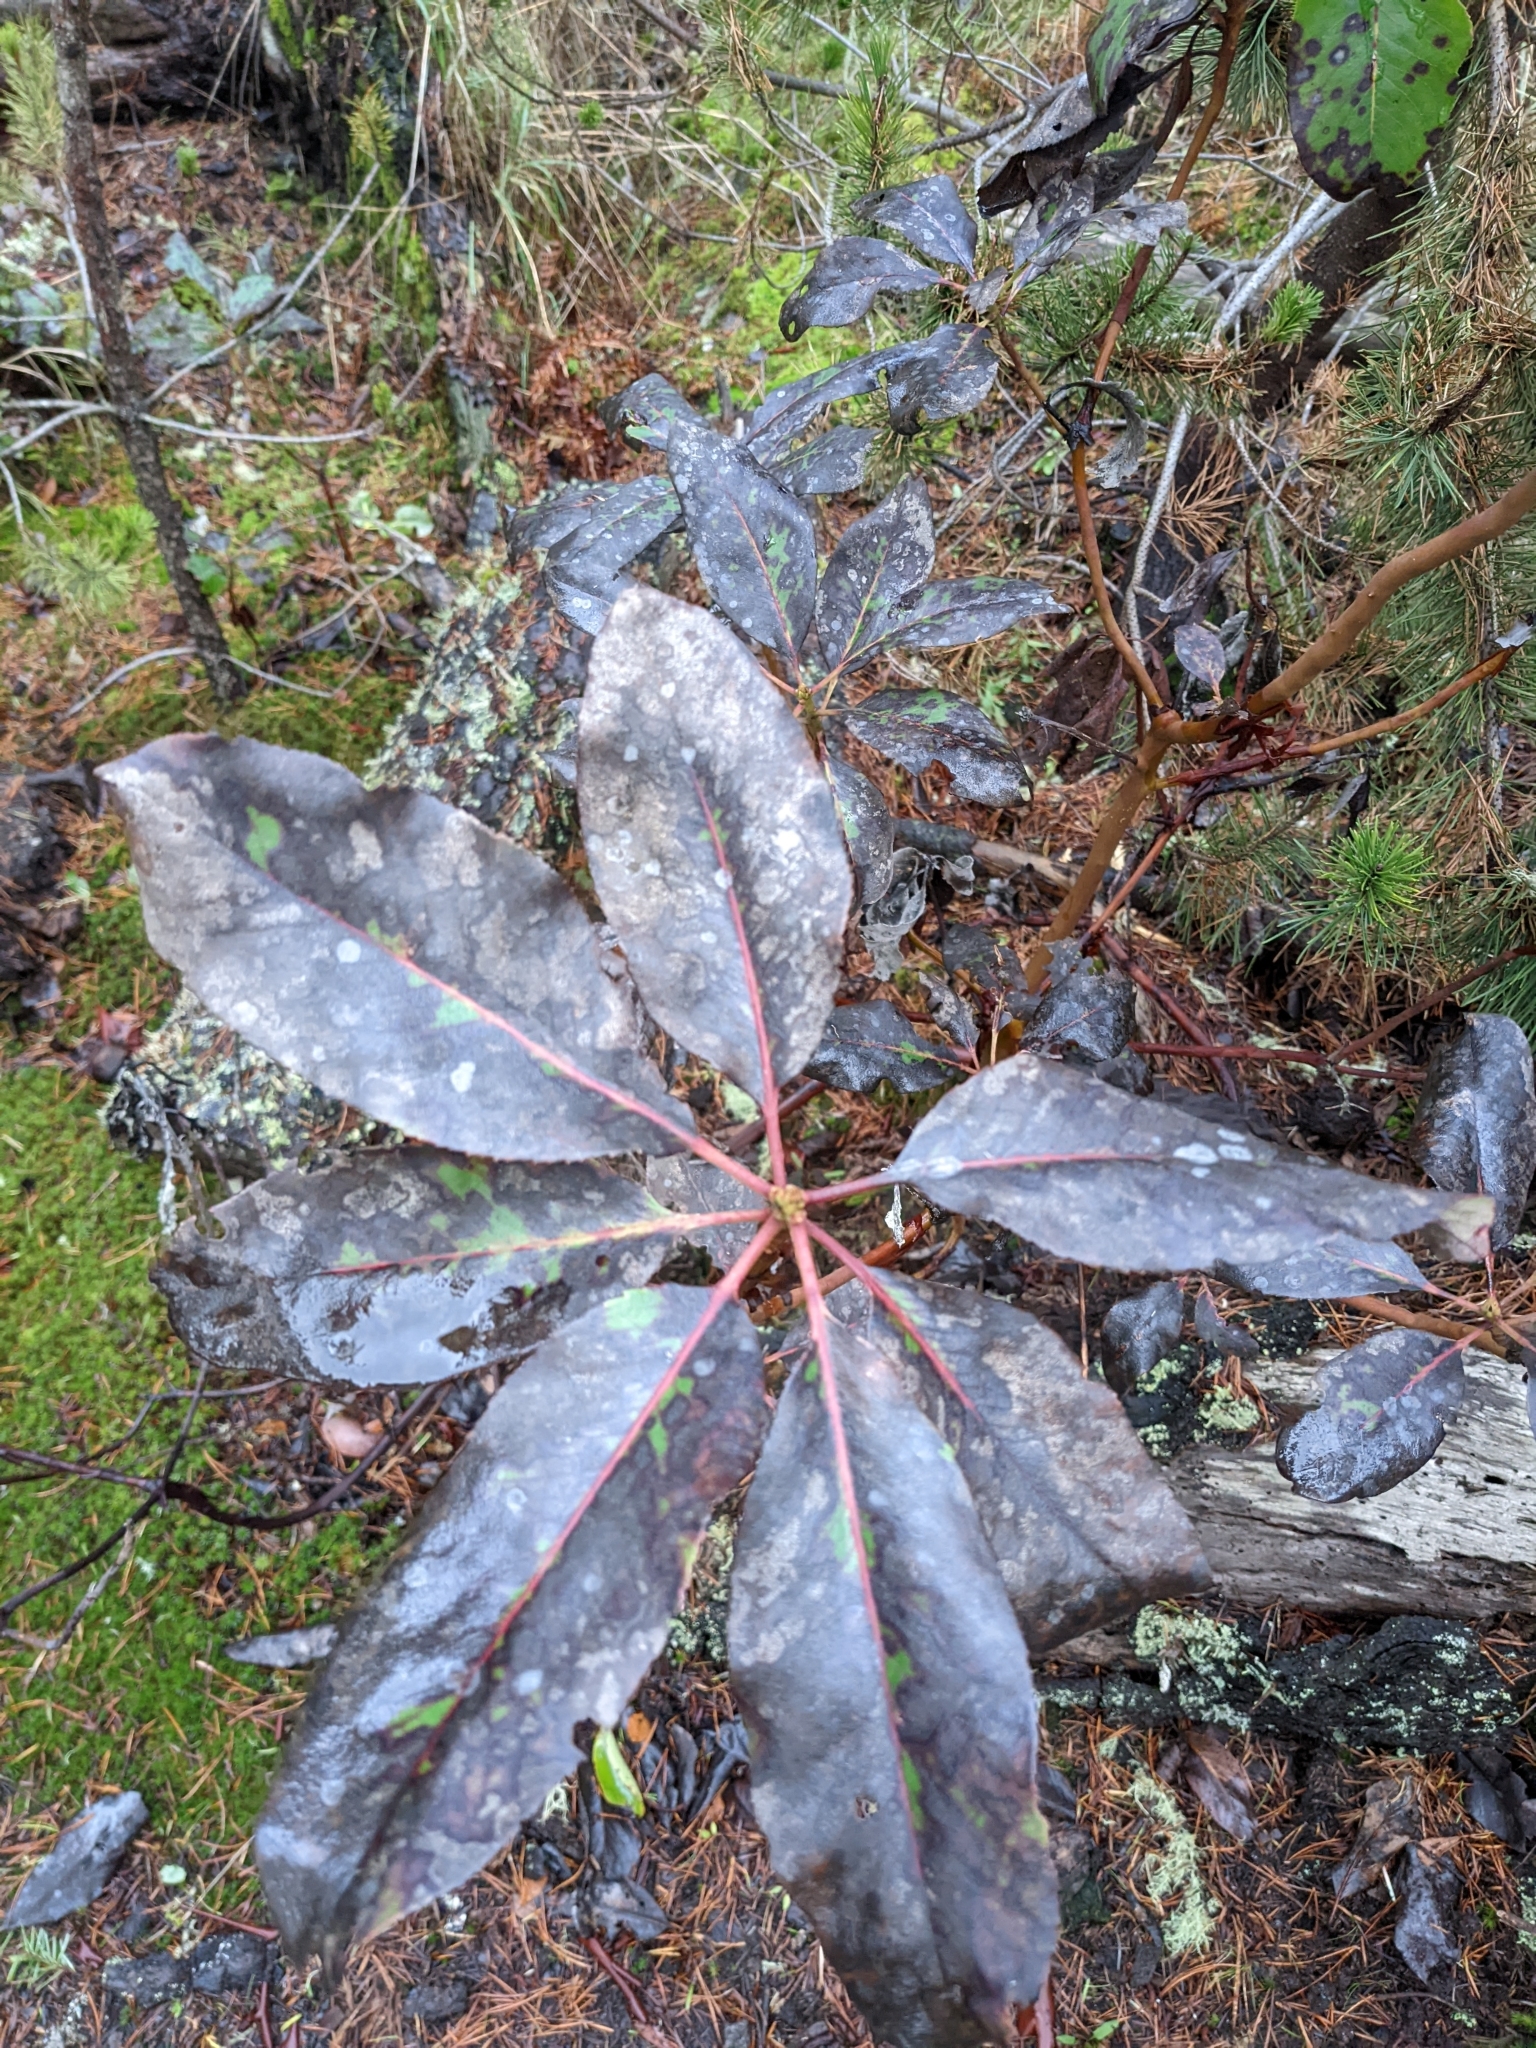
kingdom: Plantae
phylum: Tracheophyta
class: Magnoliopsida
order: Ericales
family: Ericaceae
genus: Arbutus
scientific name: Arbutus menziesii
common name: Pacific madrone
